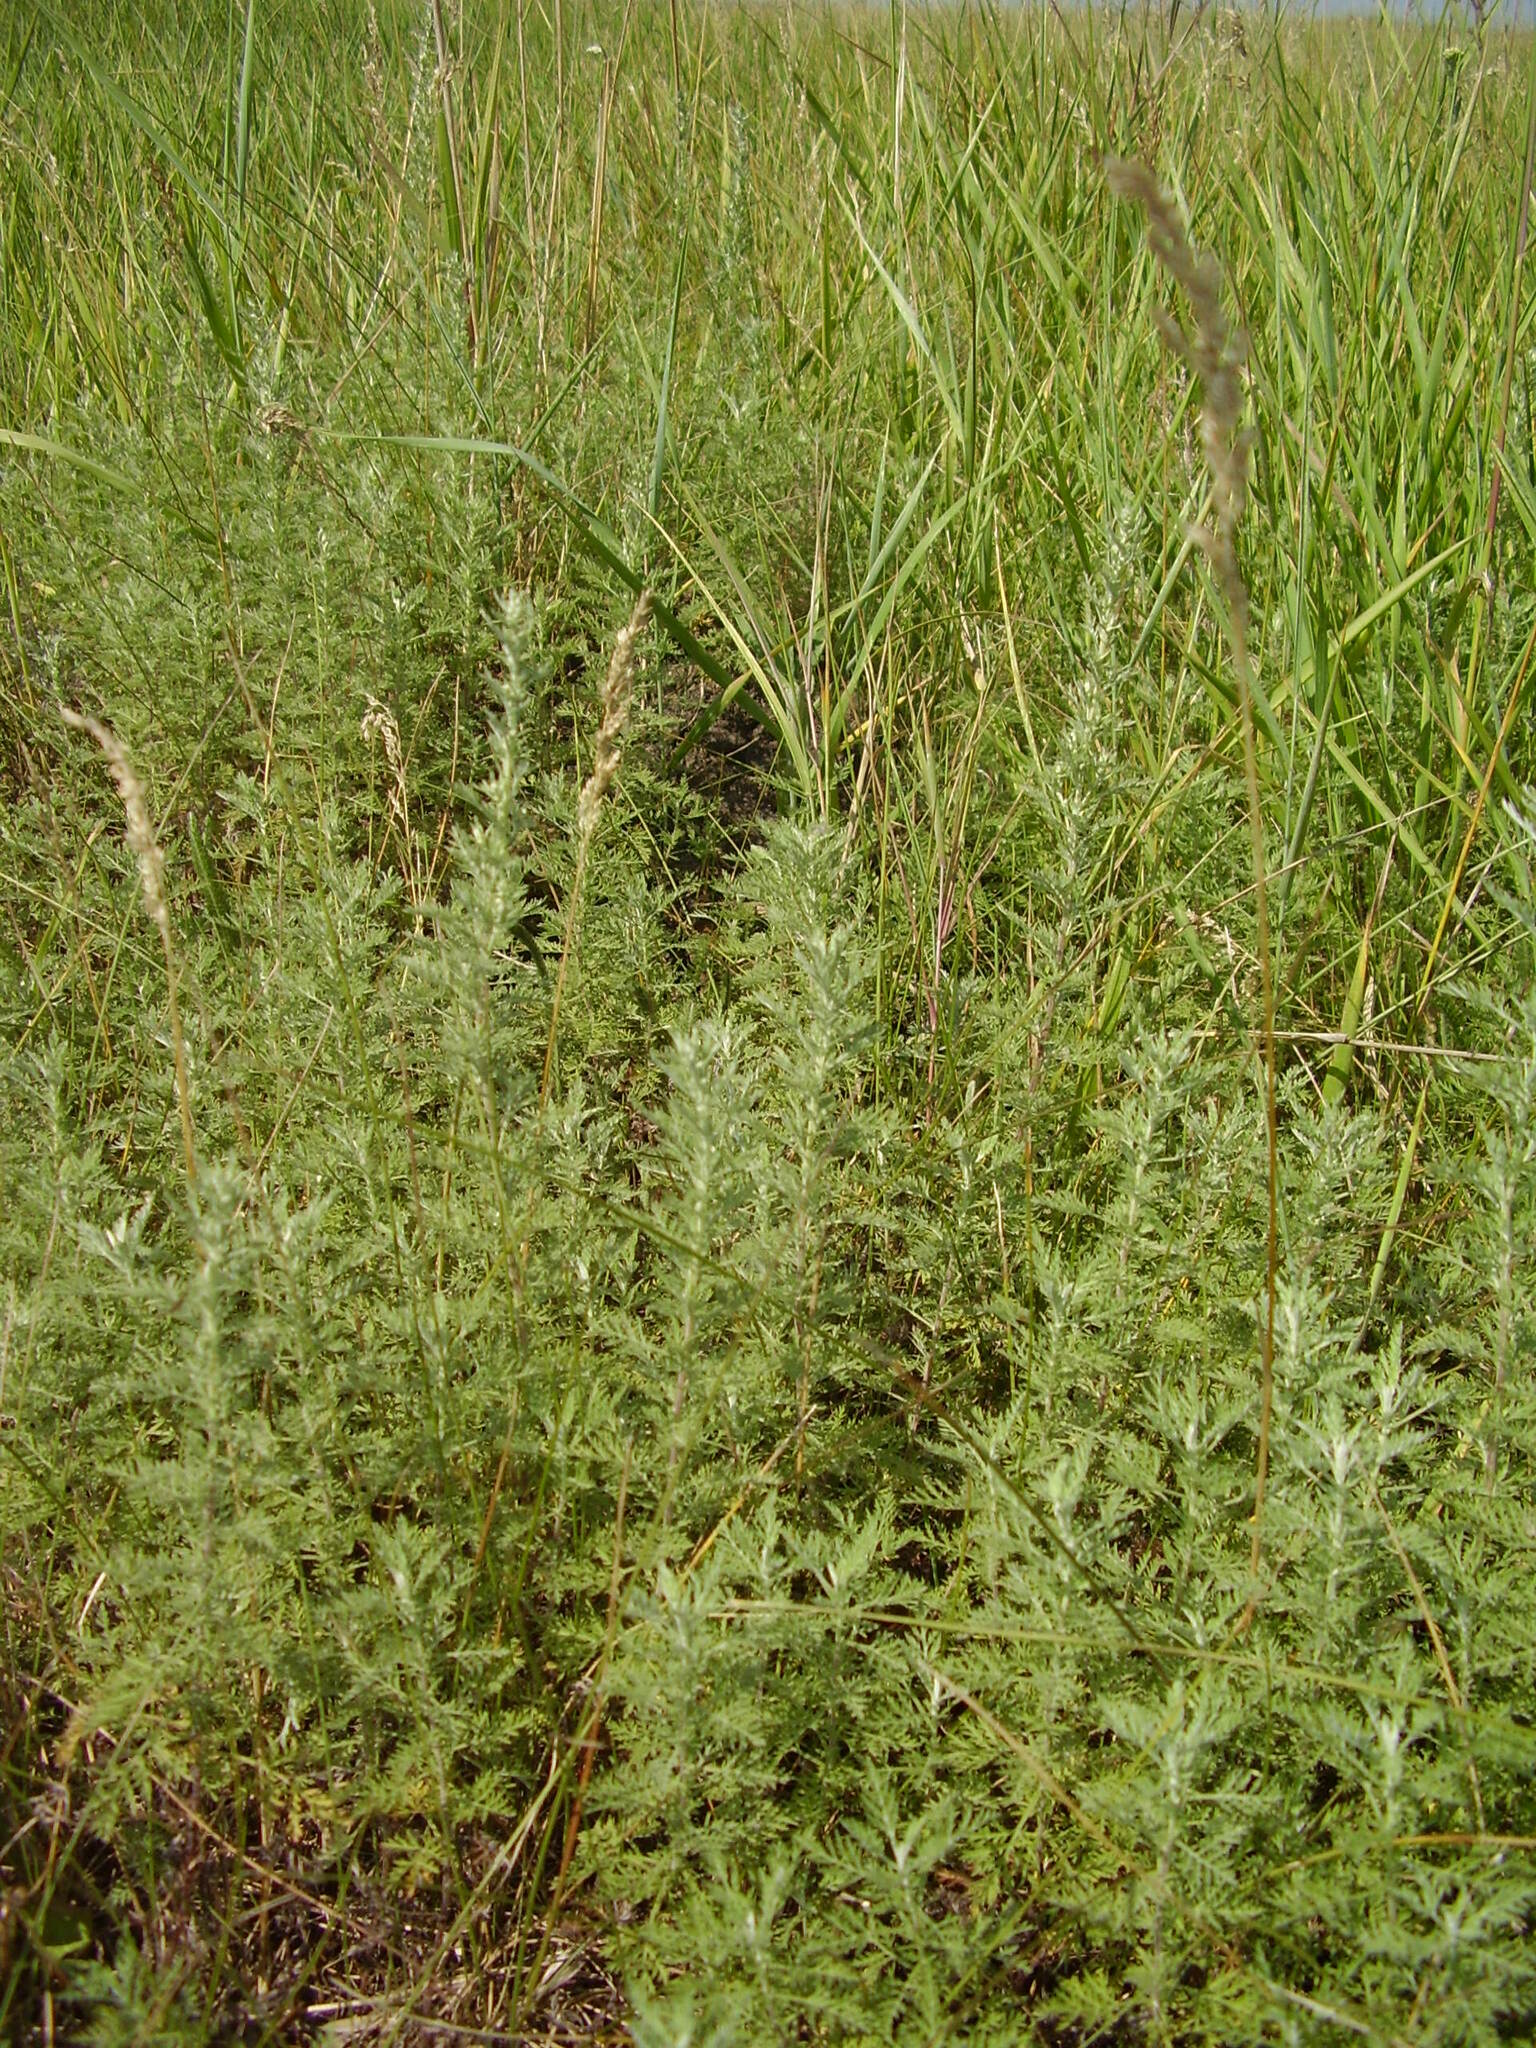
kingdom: Plantae
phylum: Tracheophyta
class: Magnoliopsida
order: Asterales
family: Asteraceae
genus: Artemisia
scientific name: Artemisia pontica
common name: Roman wormwood
